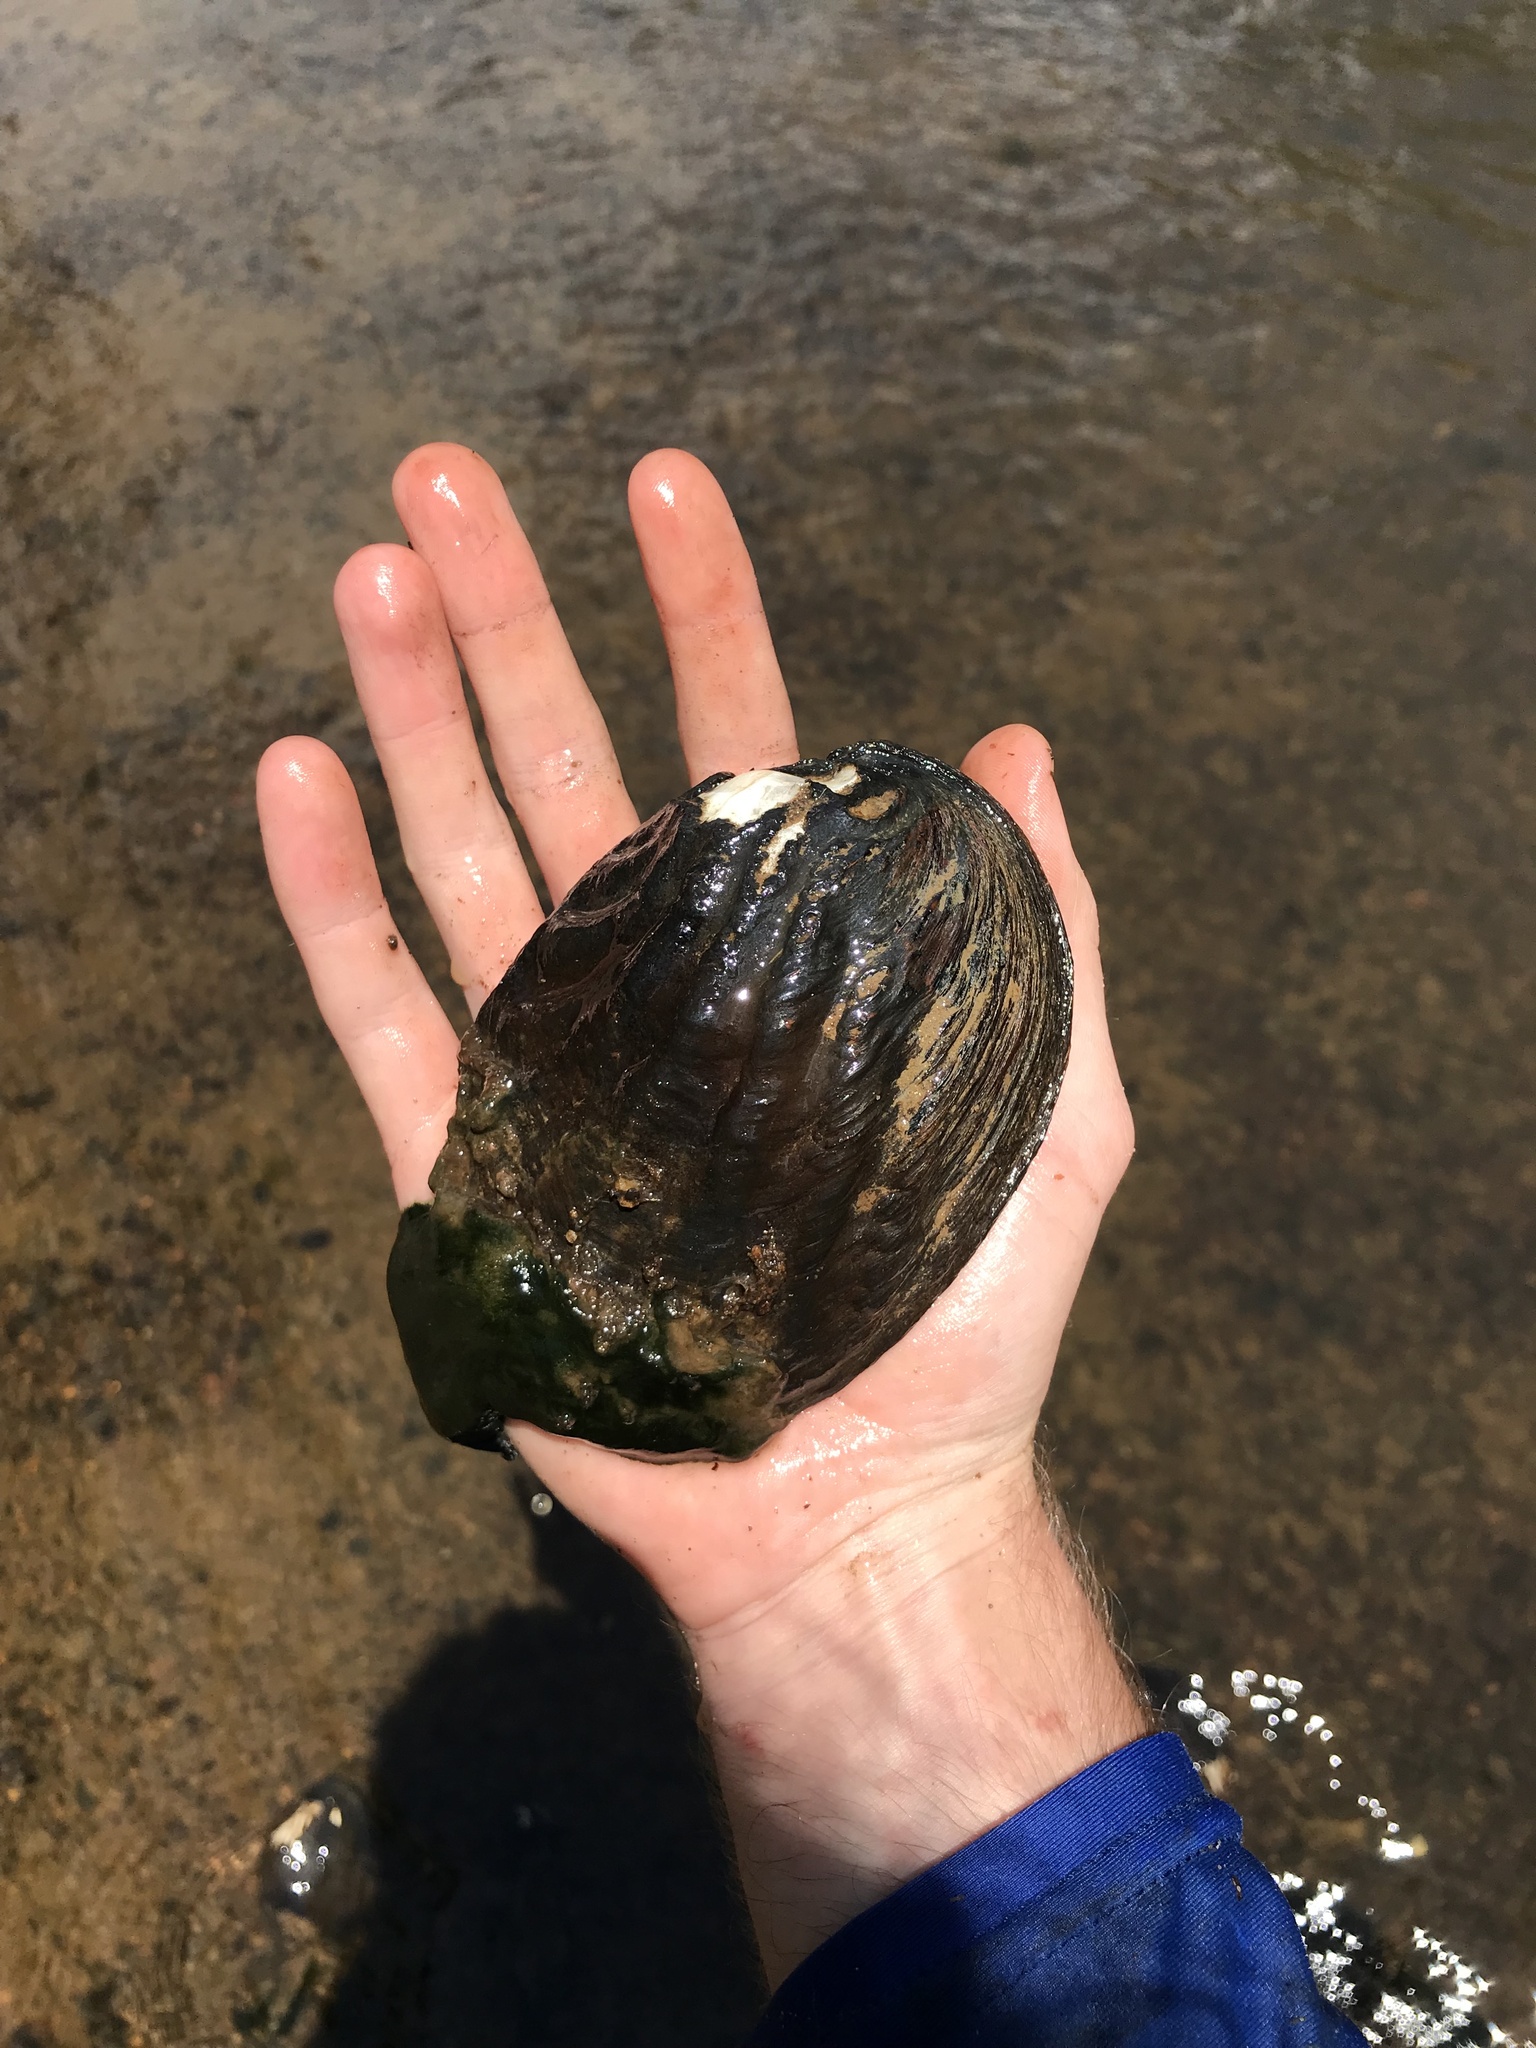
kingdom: Animalia
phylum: Mollusca
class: Bivalvia
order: Unionida
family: Unionidae
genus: Amblema
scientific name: Amblema plicata
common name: Threeridge
